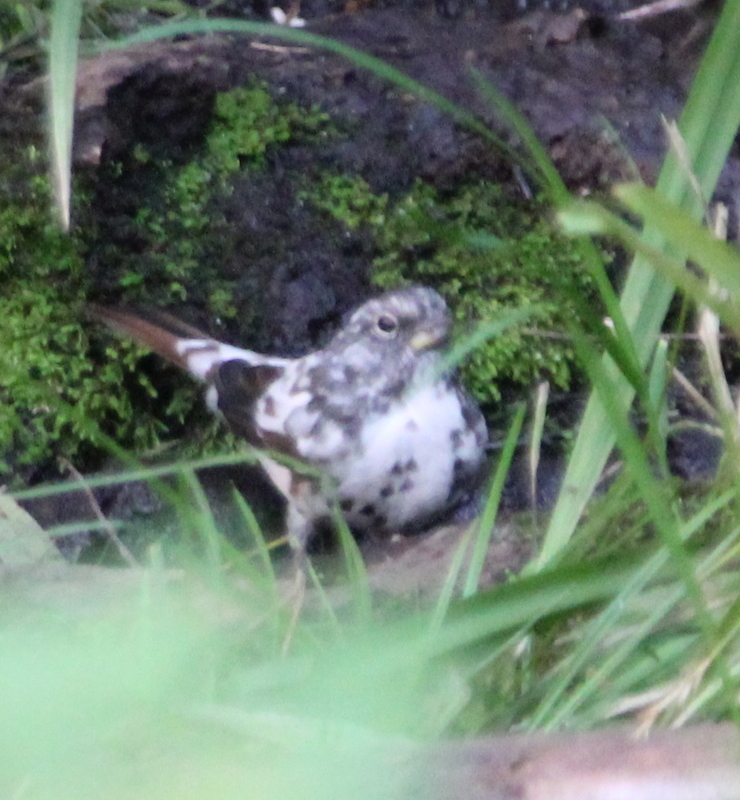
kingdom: Animalia
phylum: Chordata
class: Aves
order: Passeriformes
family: Passerellidae
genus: Passerella
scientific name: Passerella iliaca
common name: Fox sparrow
